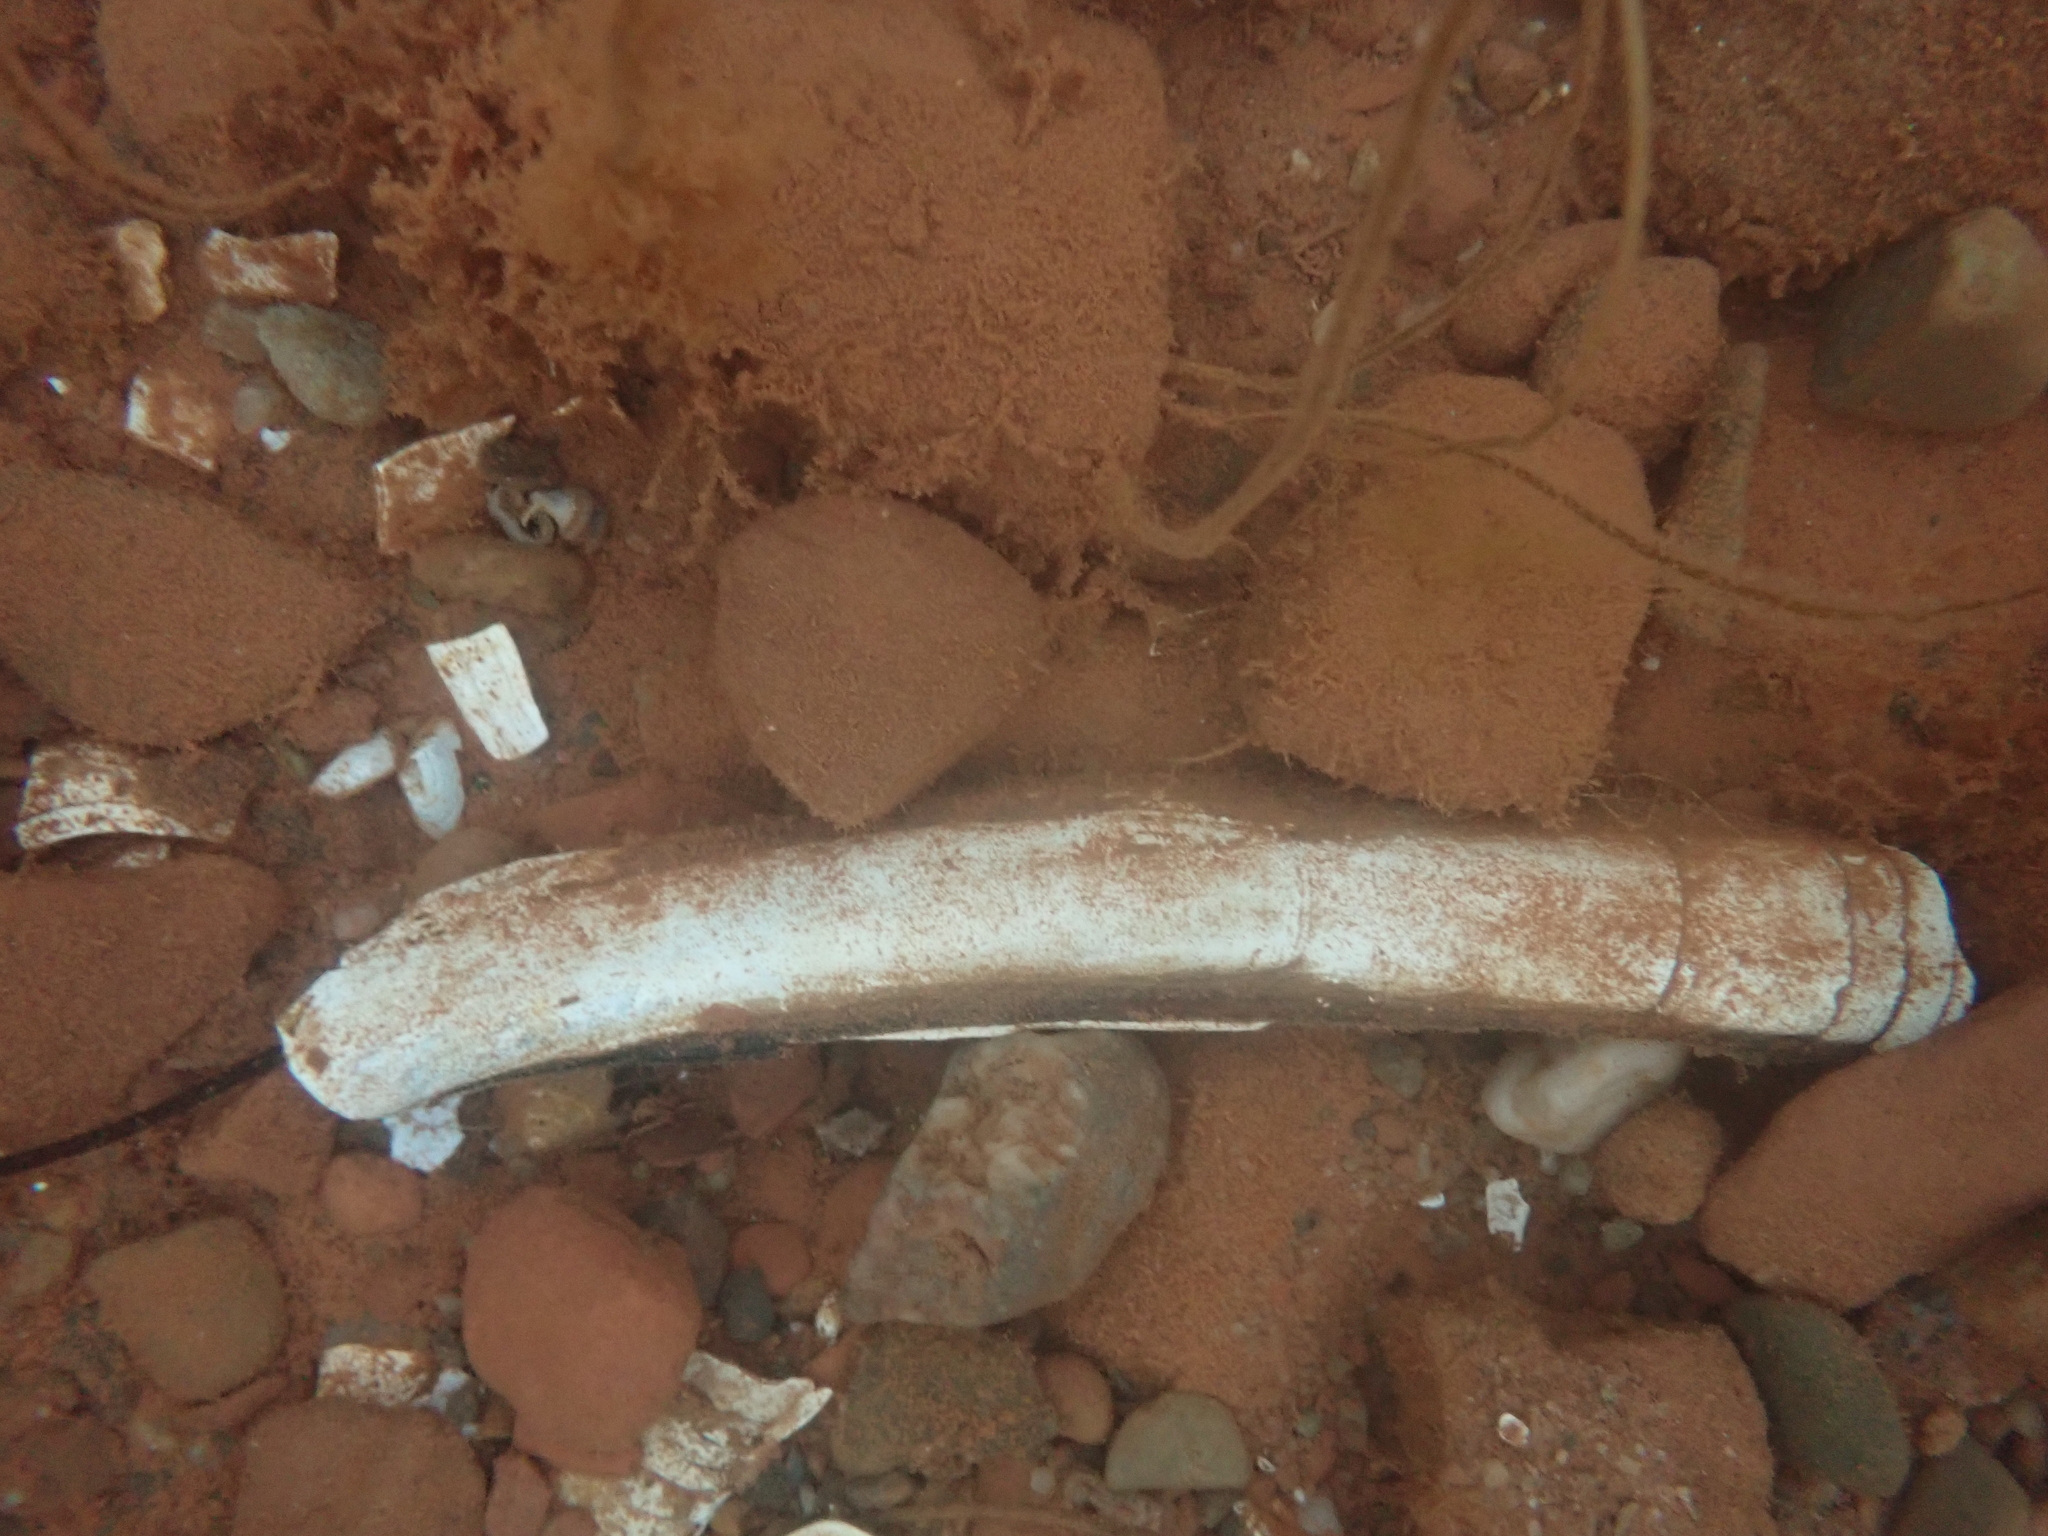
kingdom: Animalia
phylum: Mollusca
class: Bivalvia
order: Adapedonta
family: Pharidae
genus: Ensis
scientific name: Ensis leei
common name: American jack knife clam
